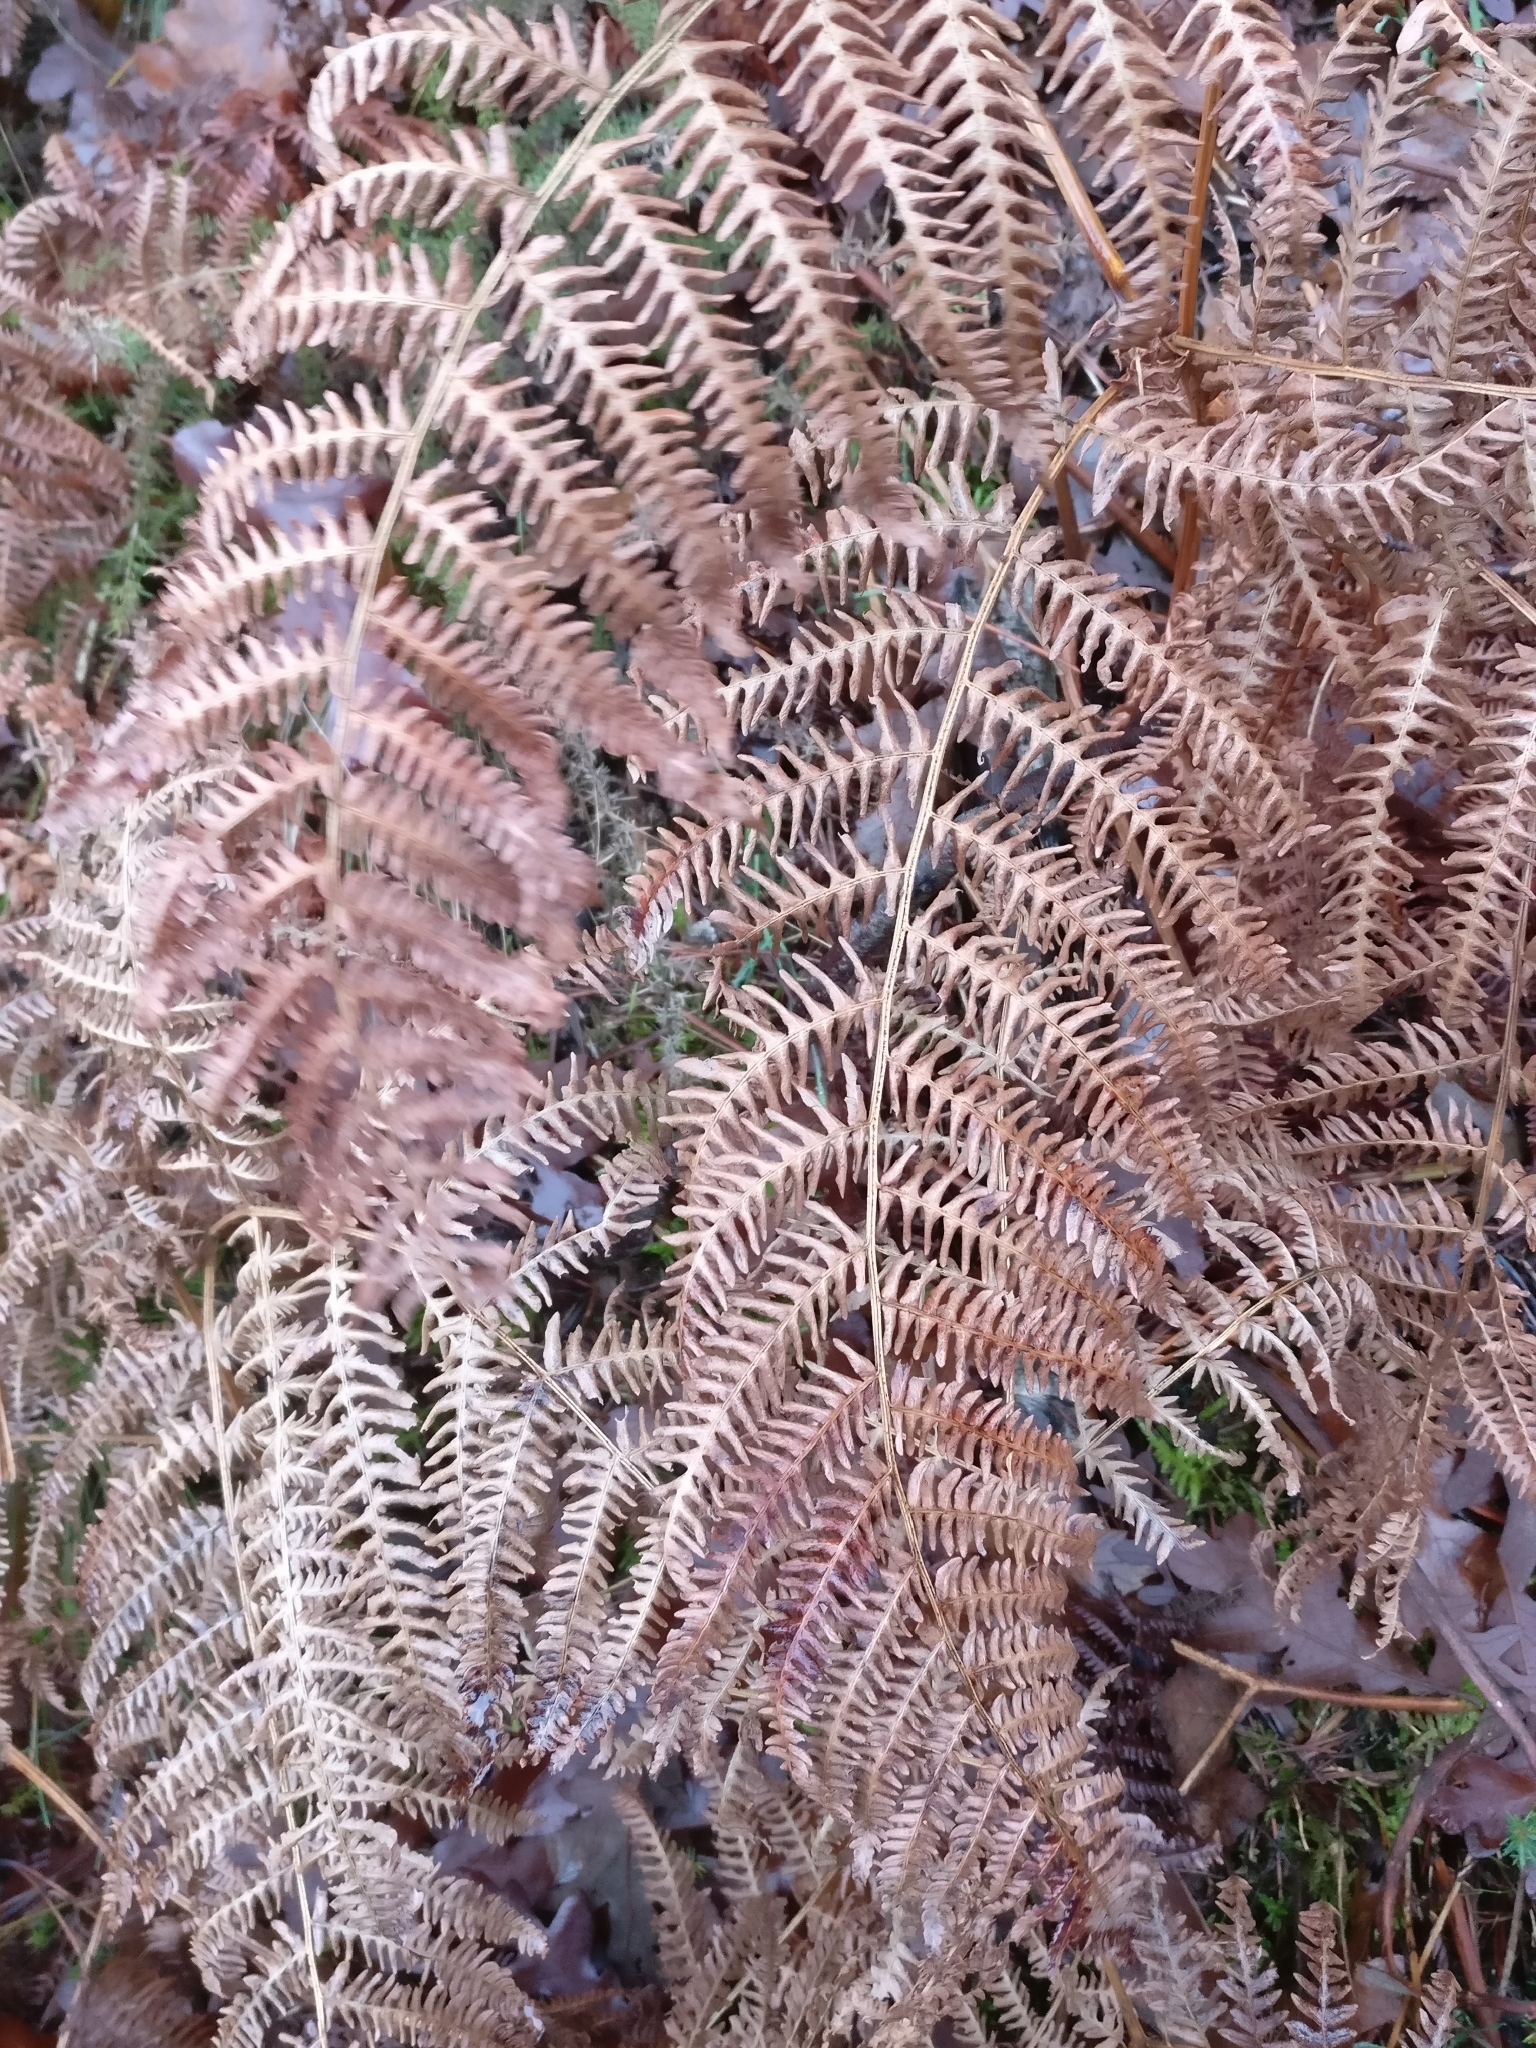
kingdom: Plantae
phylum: Tracheophyta
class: Polypodiopsida
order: Polypodiales
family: Dennstaedtiaceae
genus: Pteridium
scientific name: Pteridium aquilinum
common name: Bracken
